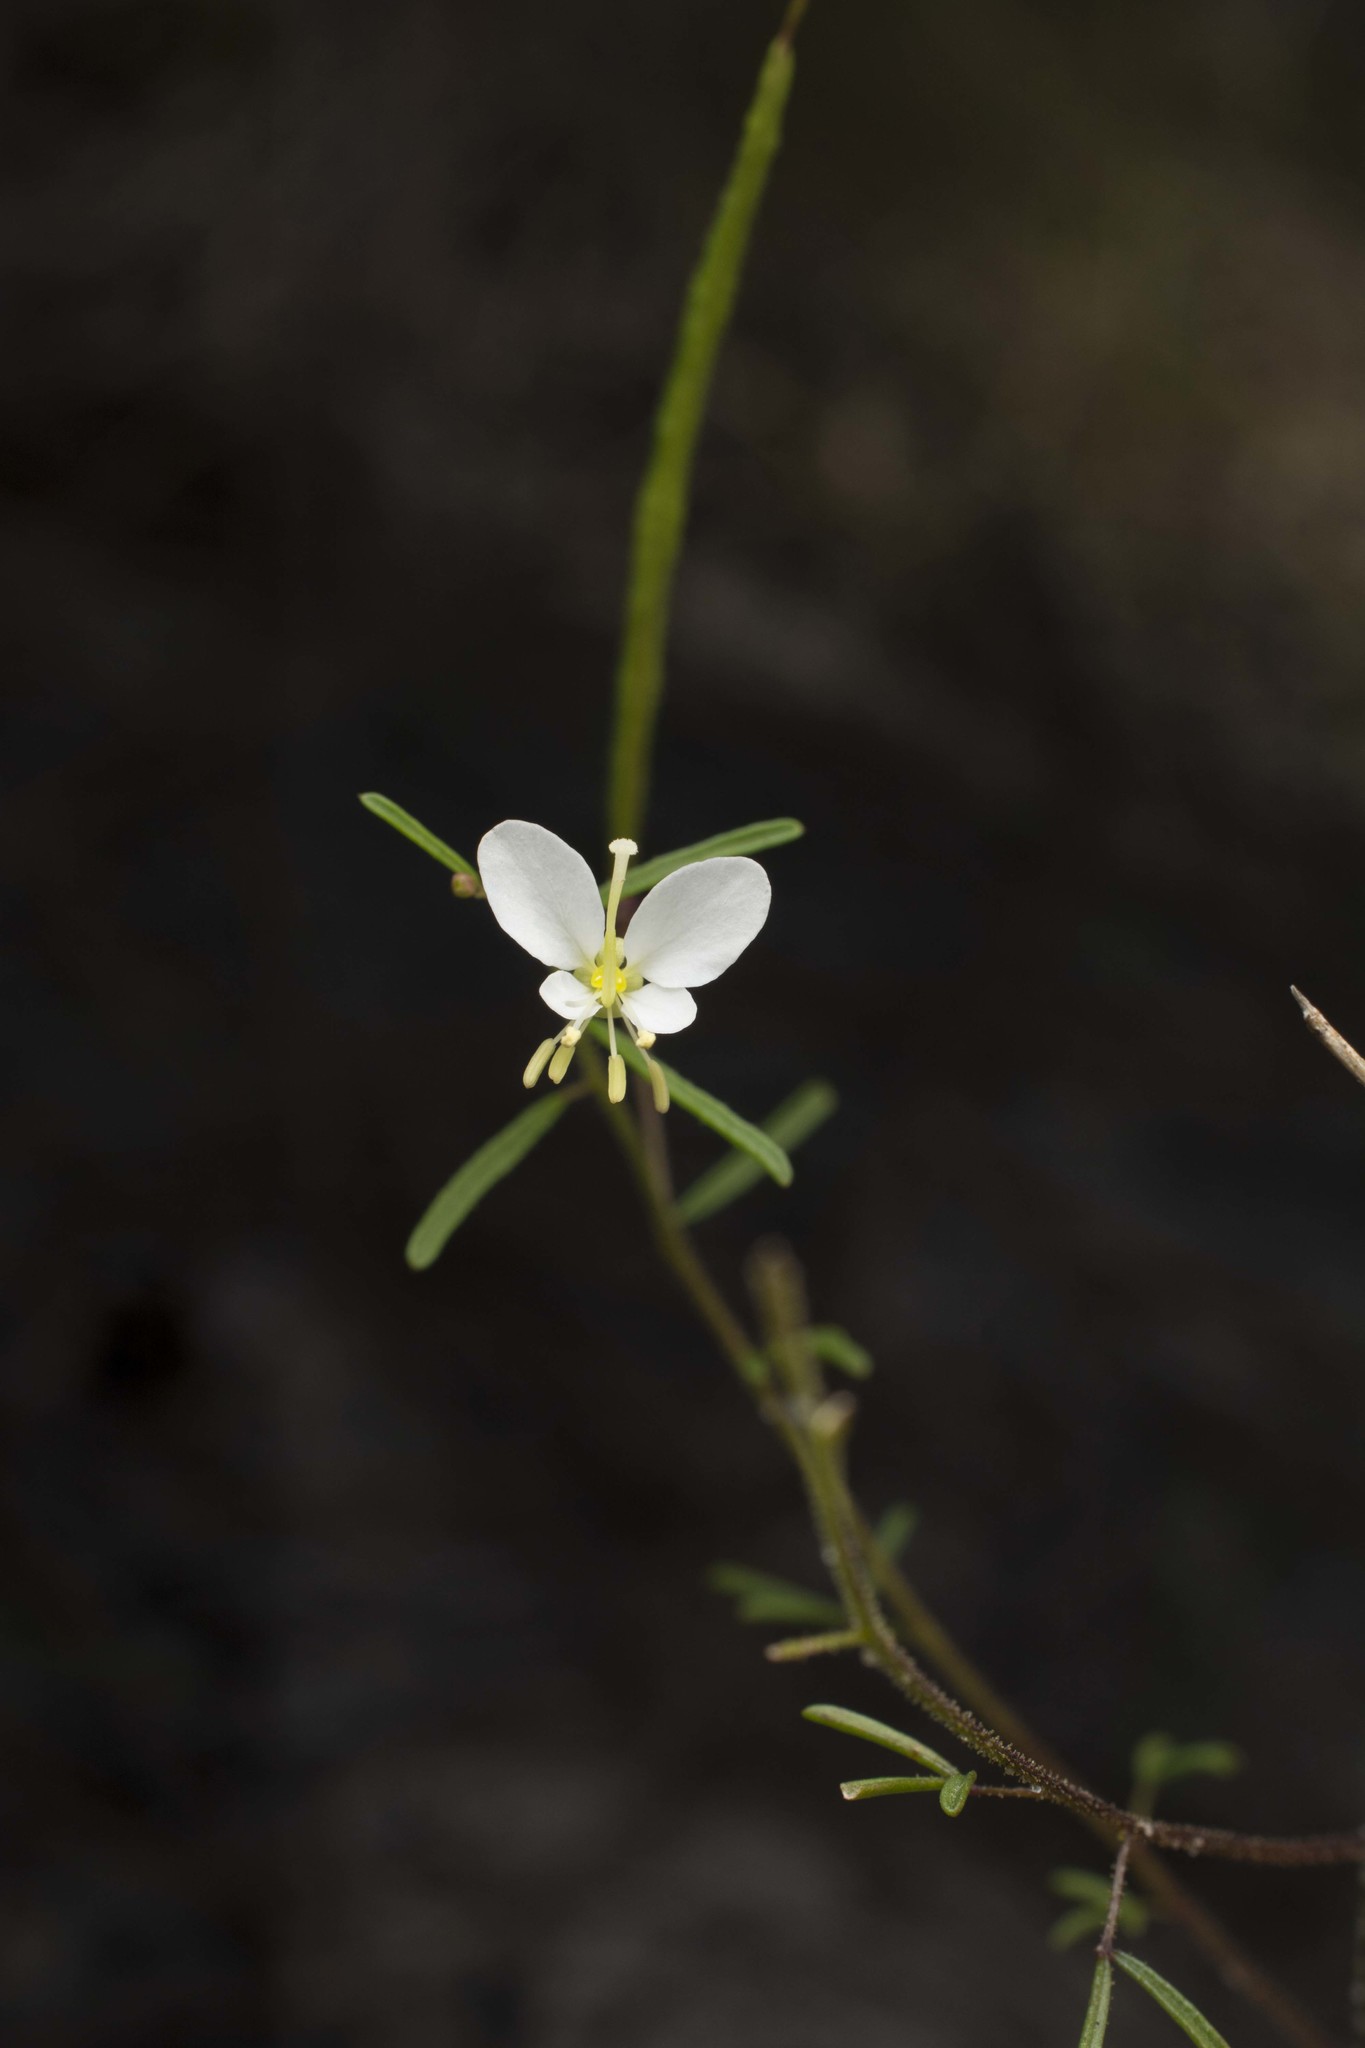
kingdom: Plantae
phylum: Tracheophyta
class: Magnoliopsida
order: Brassicales
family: Cleomaceae
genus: Polanisia
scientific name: Polanisia tenuifolia
